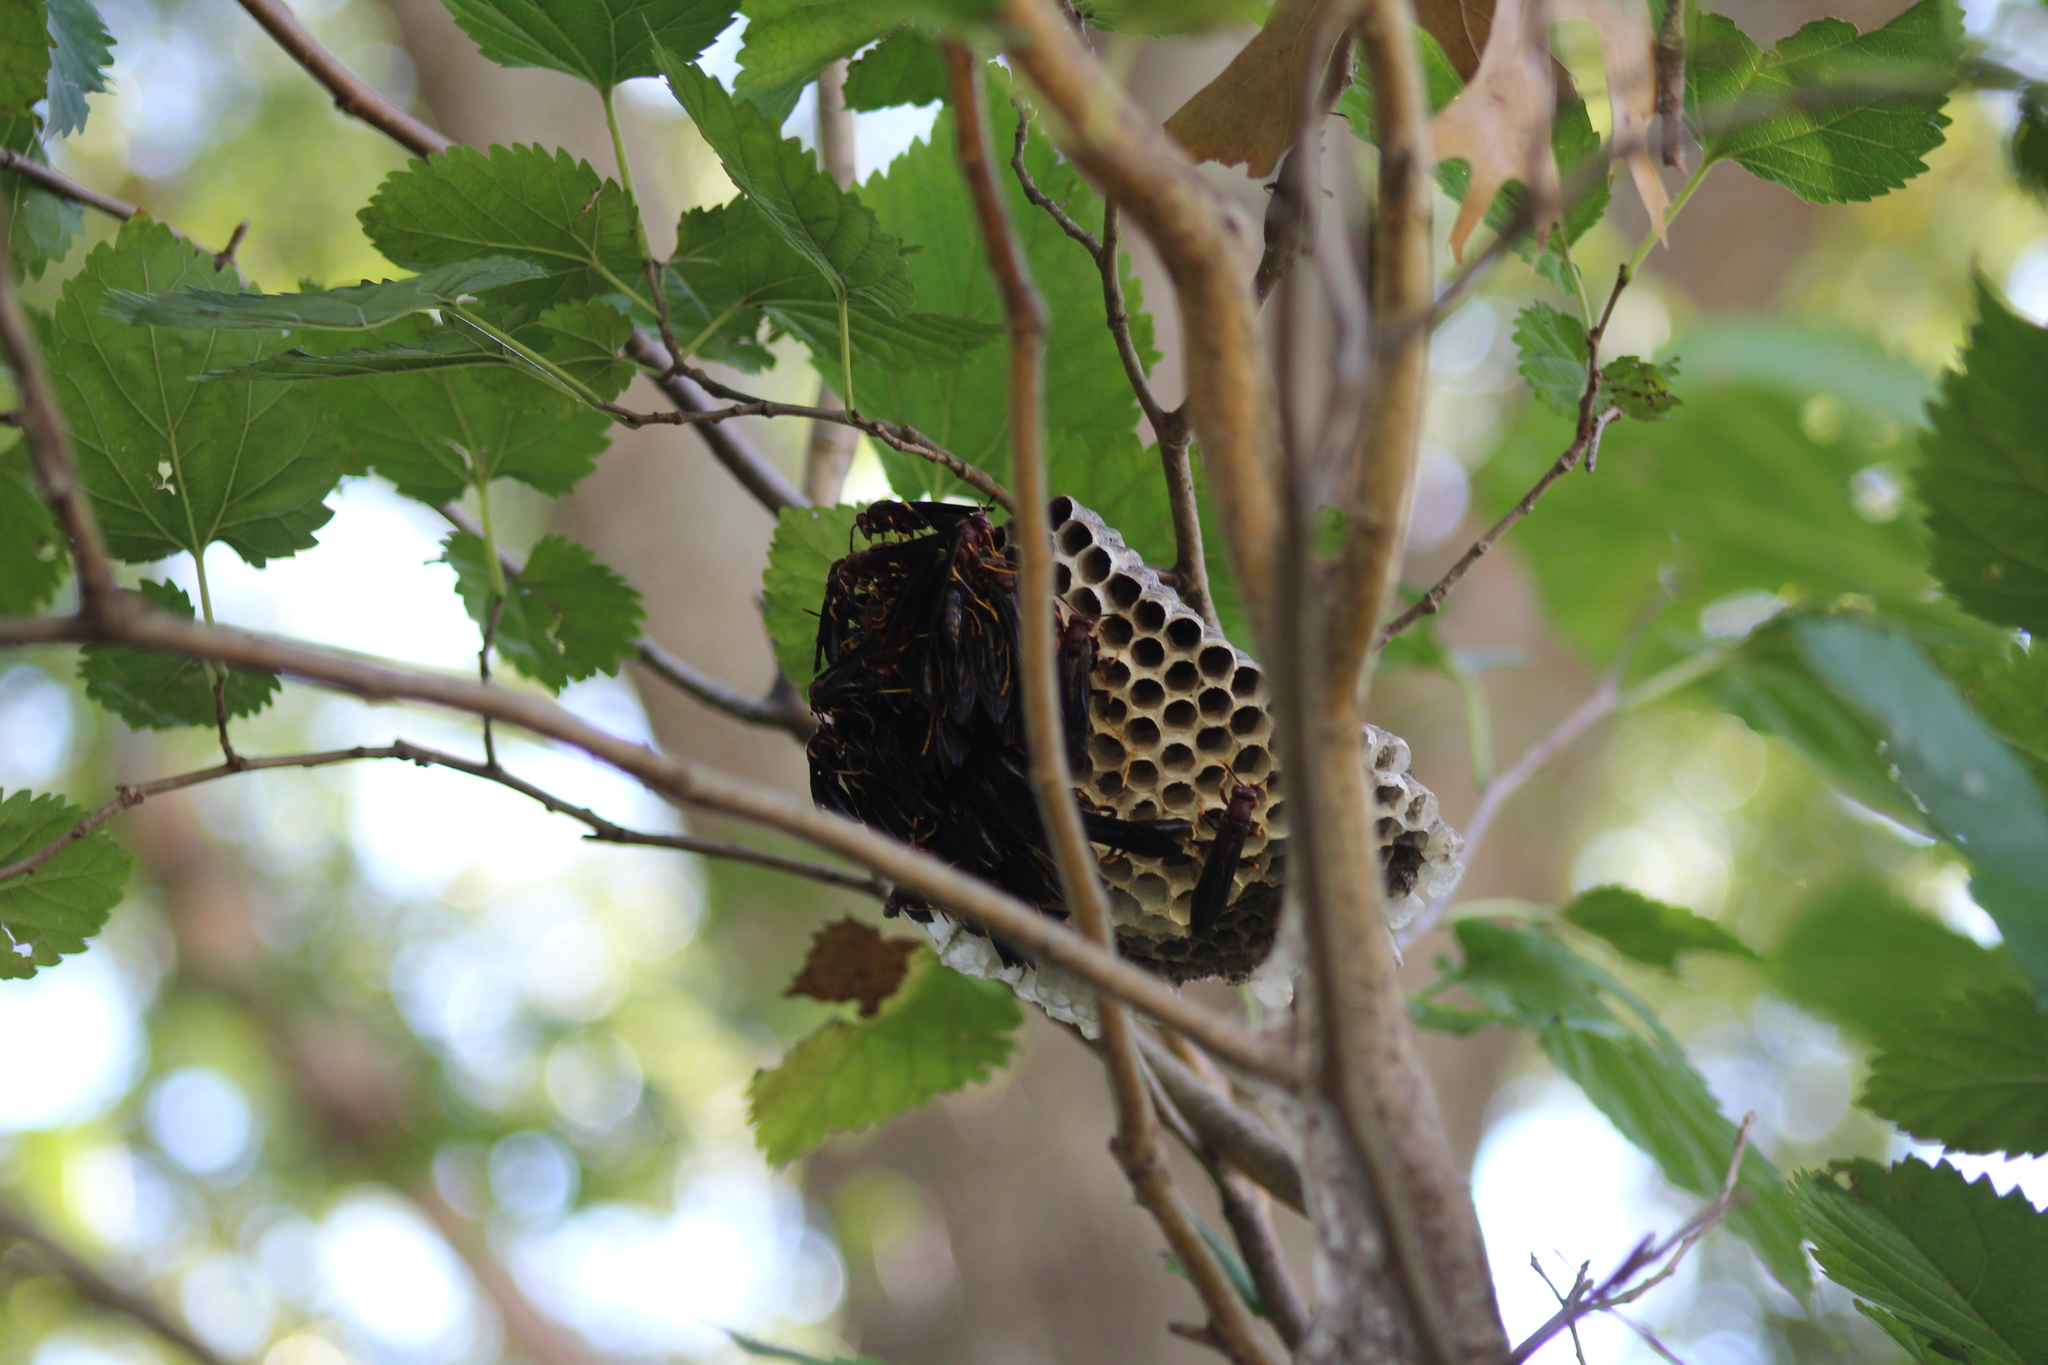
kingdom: Animalia
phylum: Arthropoda
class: Insecta
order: Hymenoptera
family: Eumenidae
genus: Polistes
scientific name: Polistes annularis
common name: Ringed paper wasp
